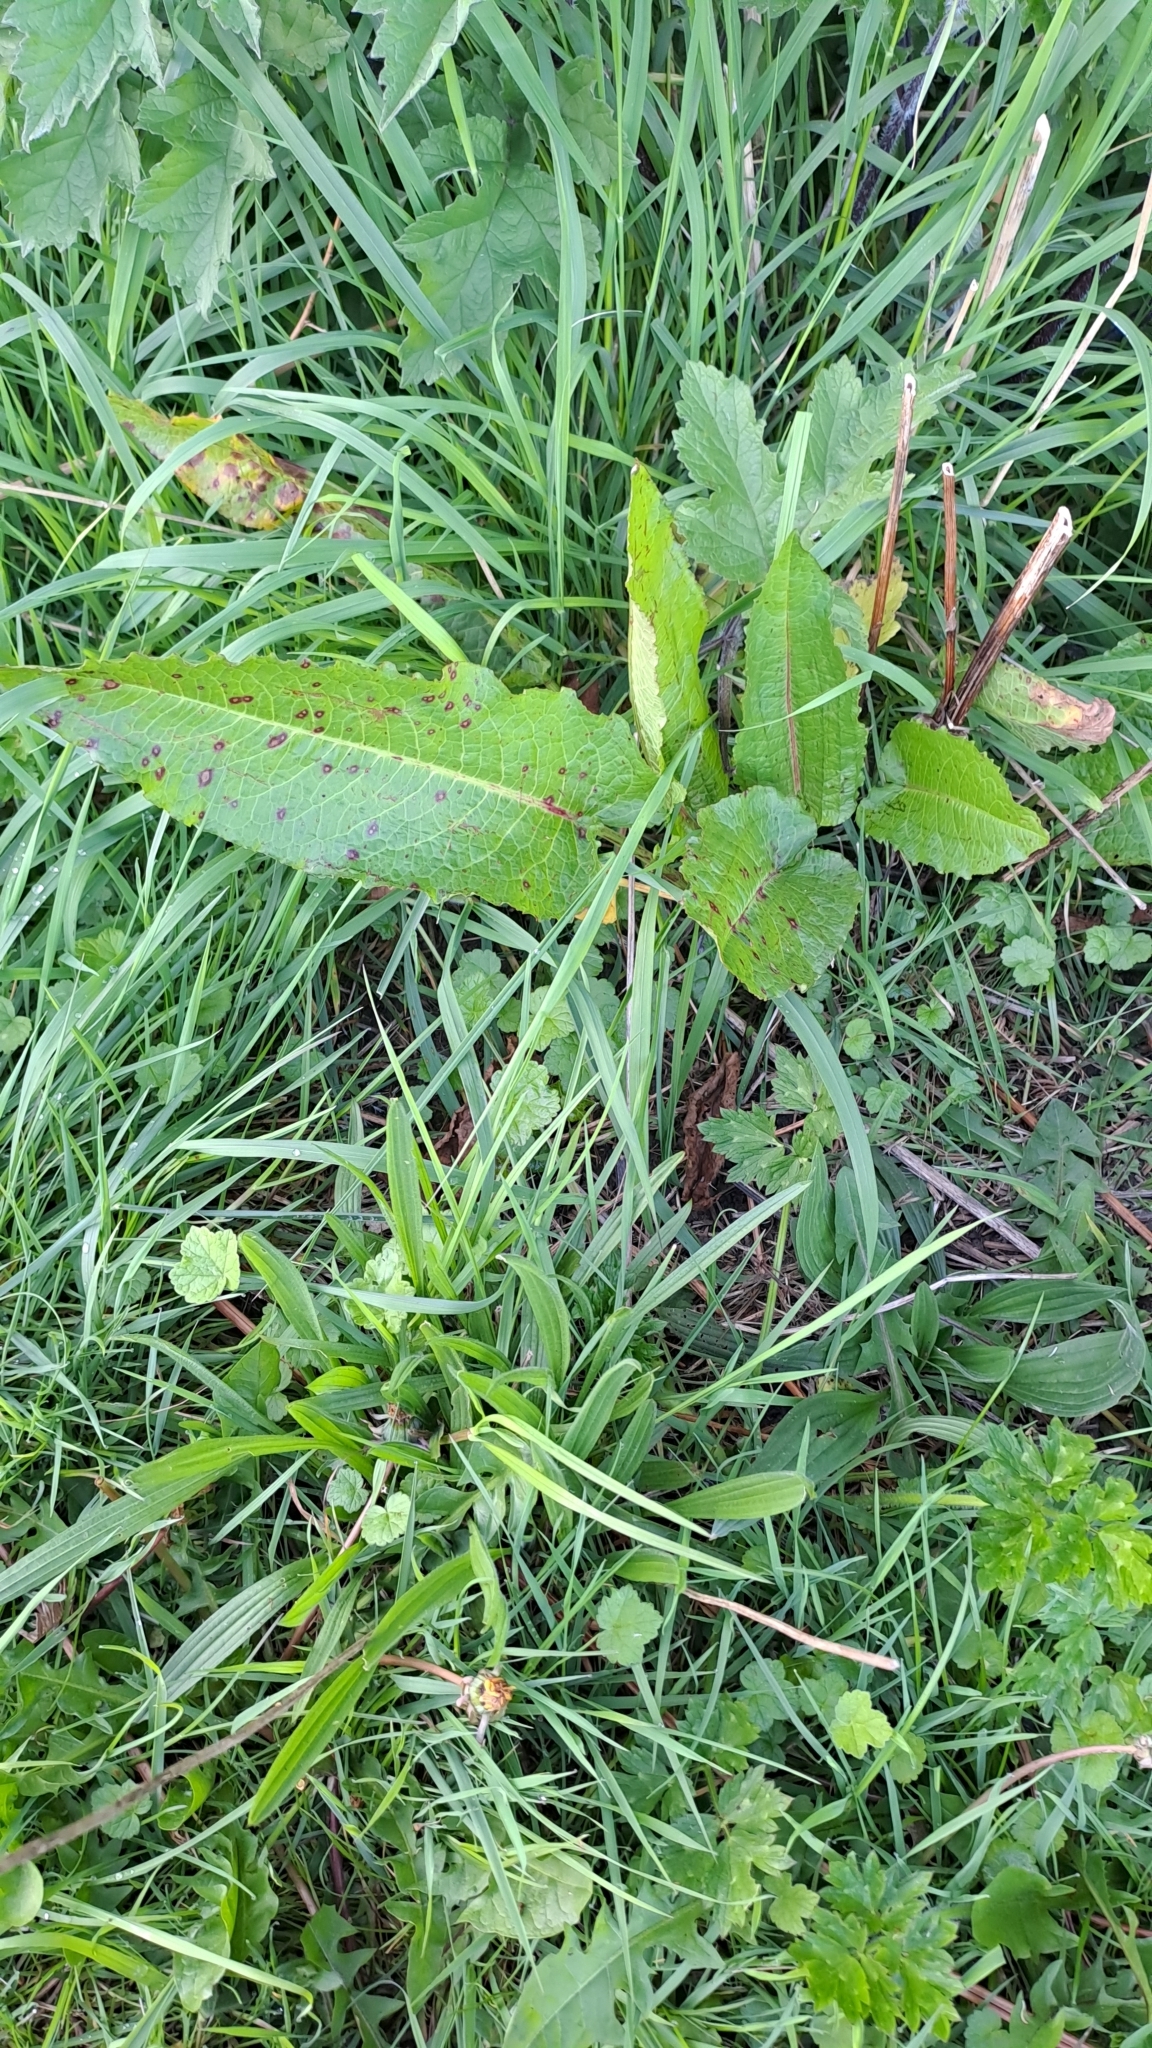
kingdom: Plantae
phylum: Tracheophyta
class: Magnoliopsida
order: Caryophyllales
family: Polygonaceae
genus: Rumex
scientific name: Rumex obtusifolius
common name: Bitter dock
